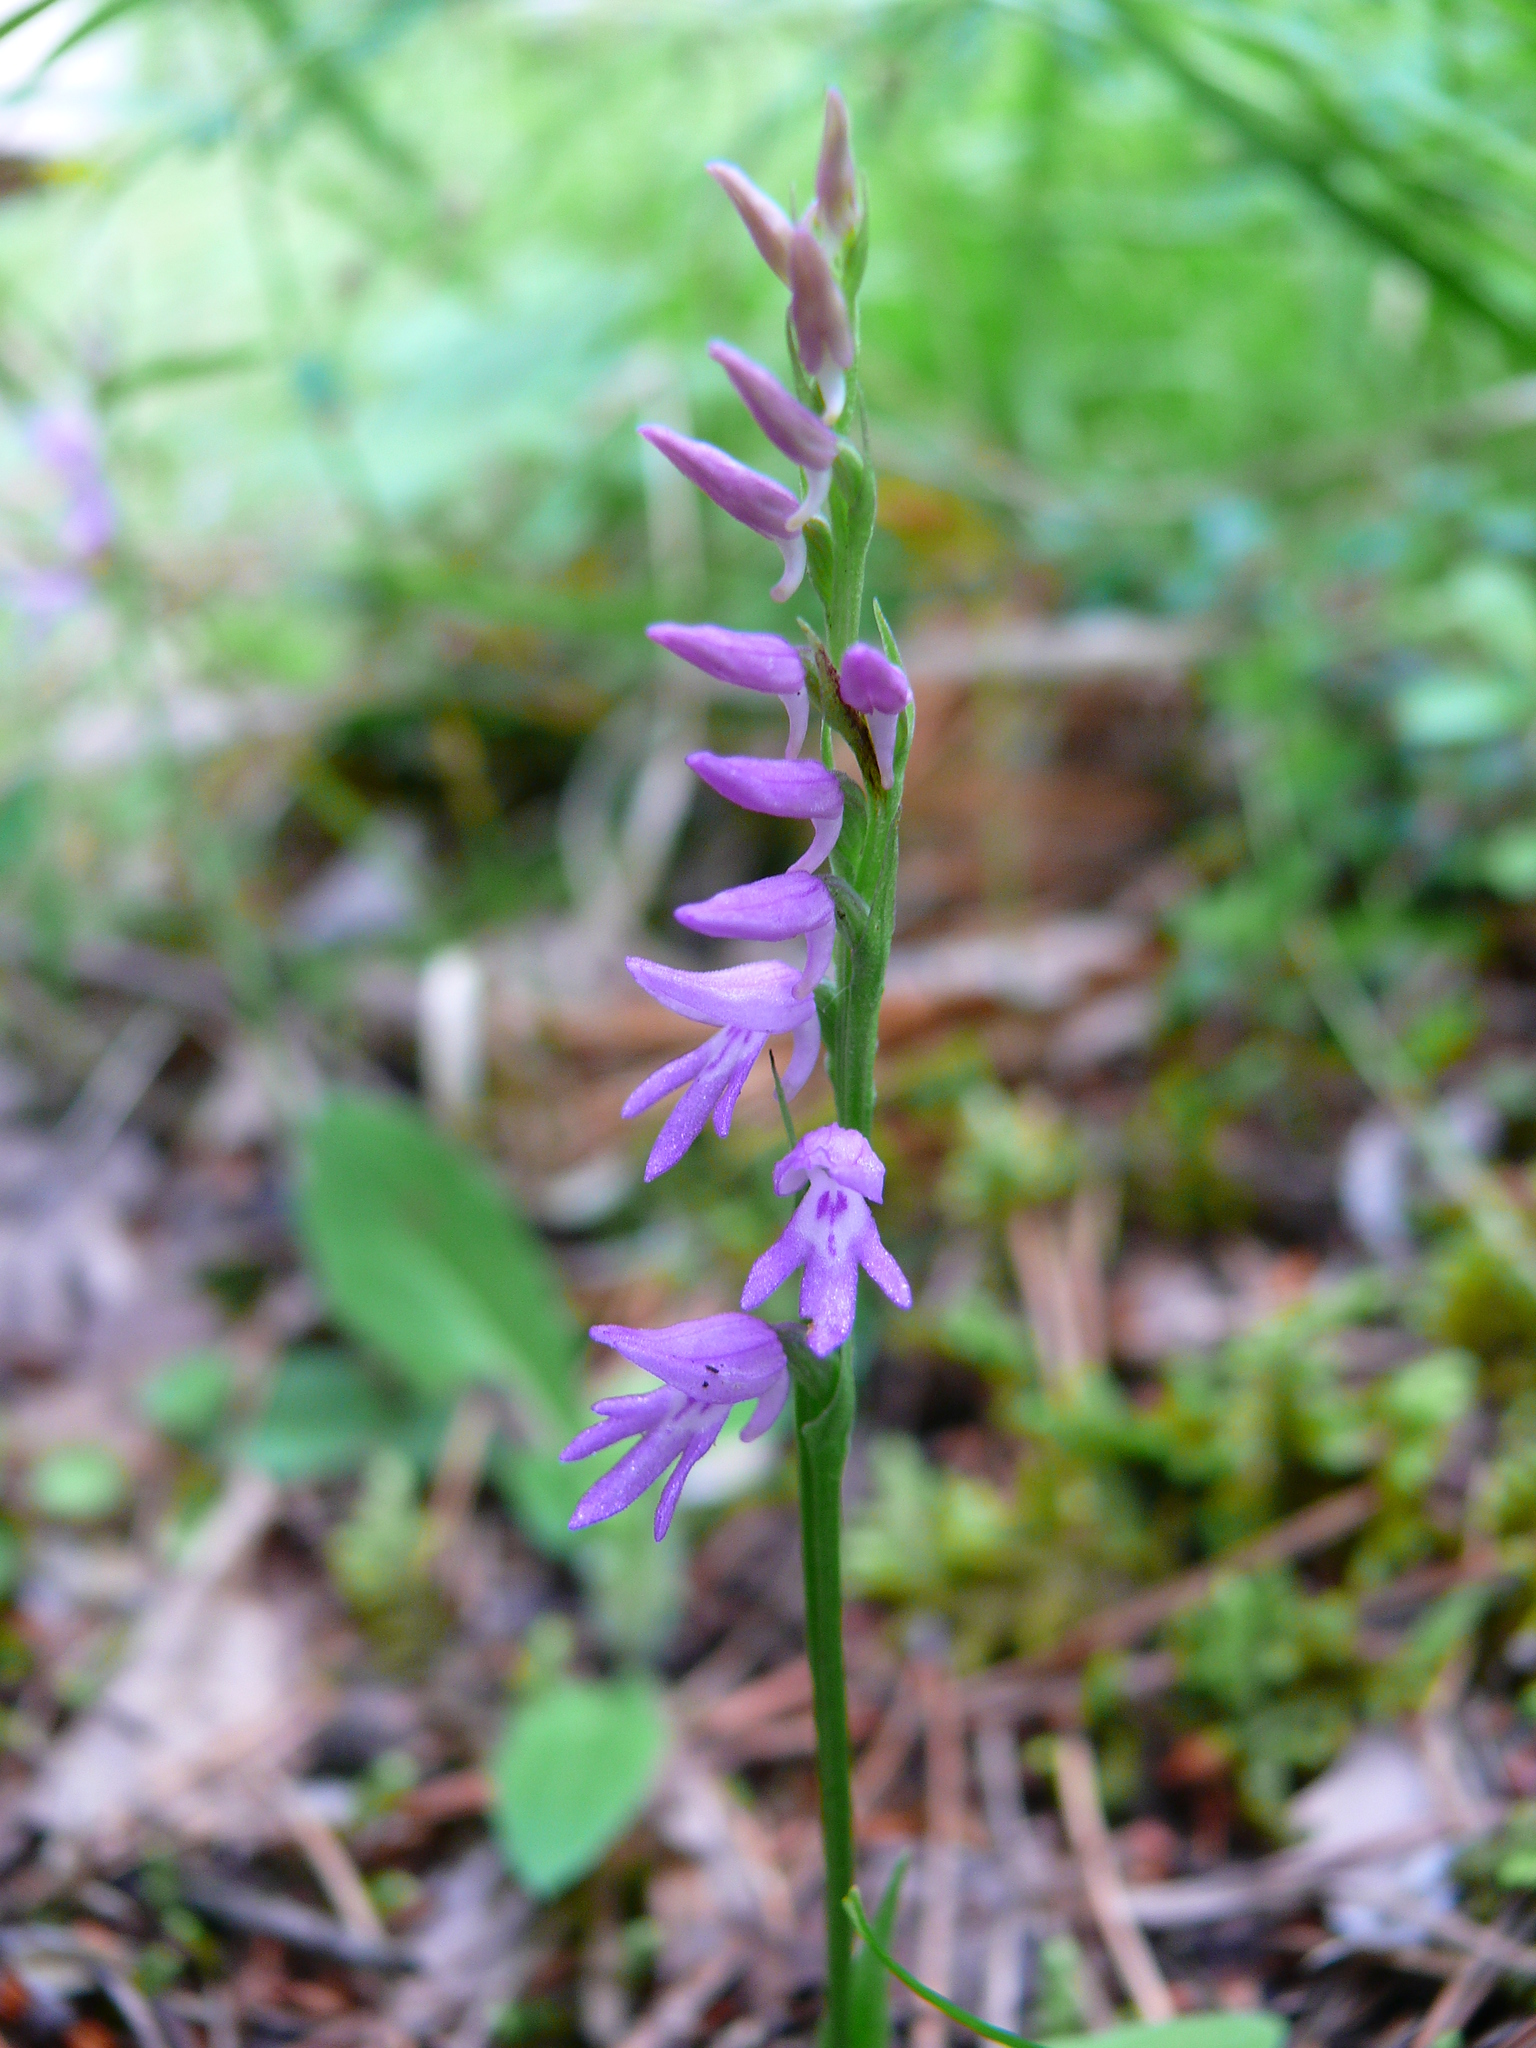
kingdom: Plantae
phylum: Tracheophyta
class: Liliopsida
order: Asparagales
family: Orchidaceae
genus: Hemipilia
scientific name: Hemipilia cucullata
